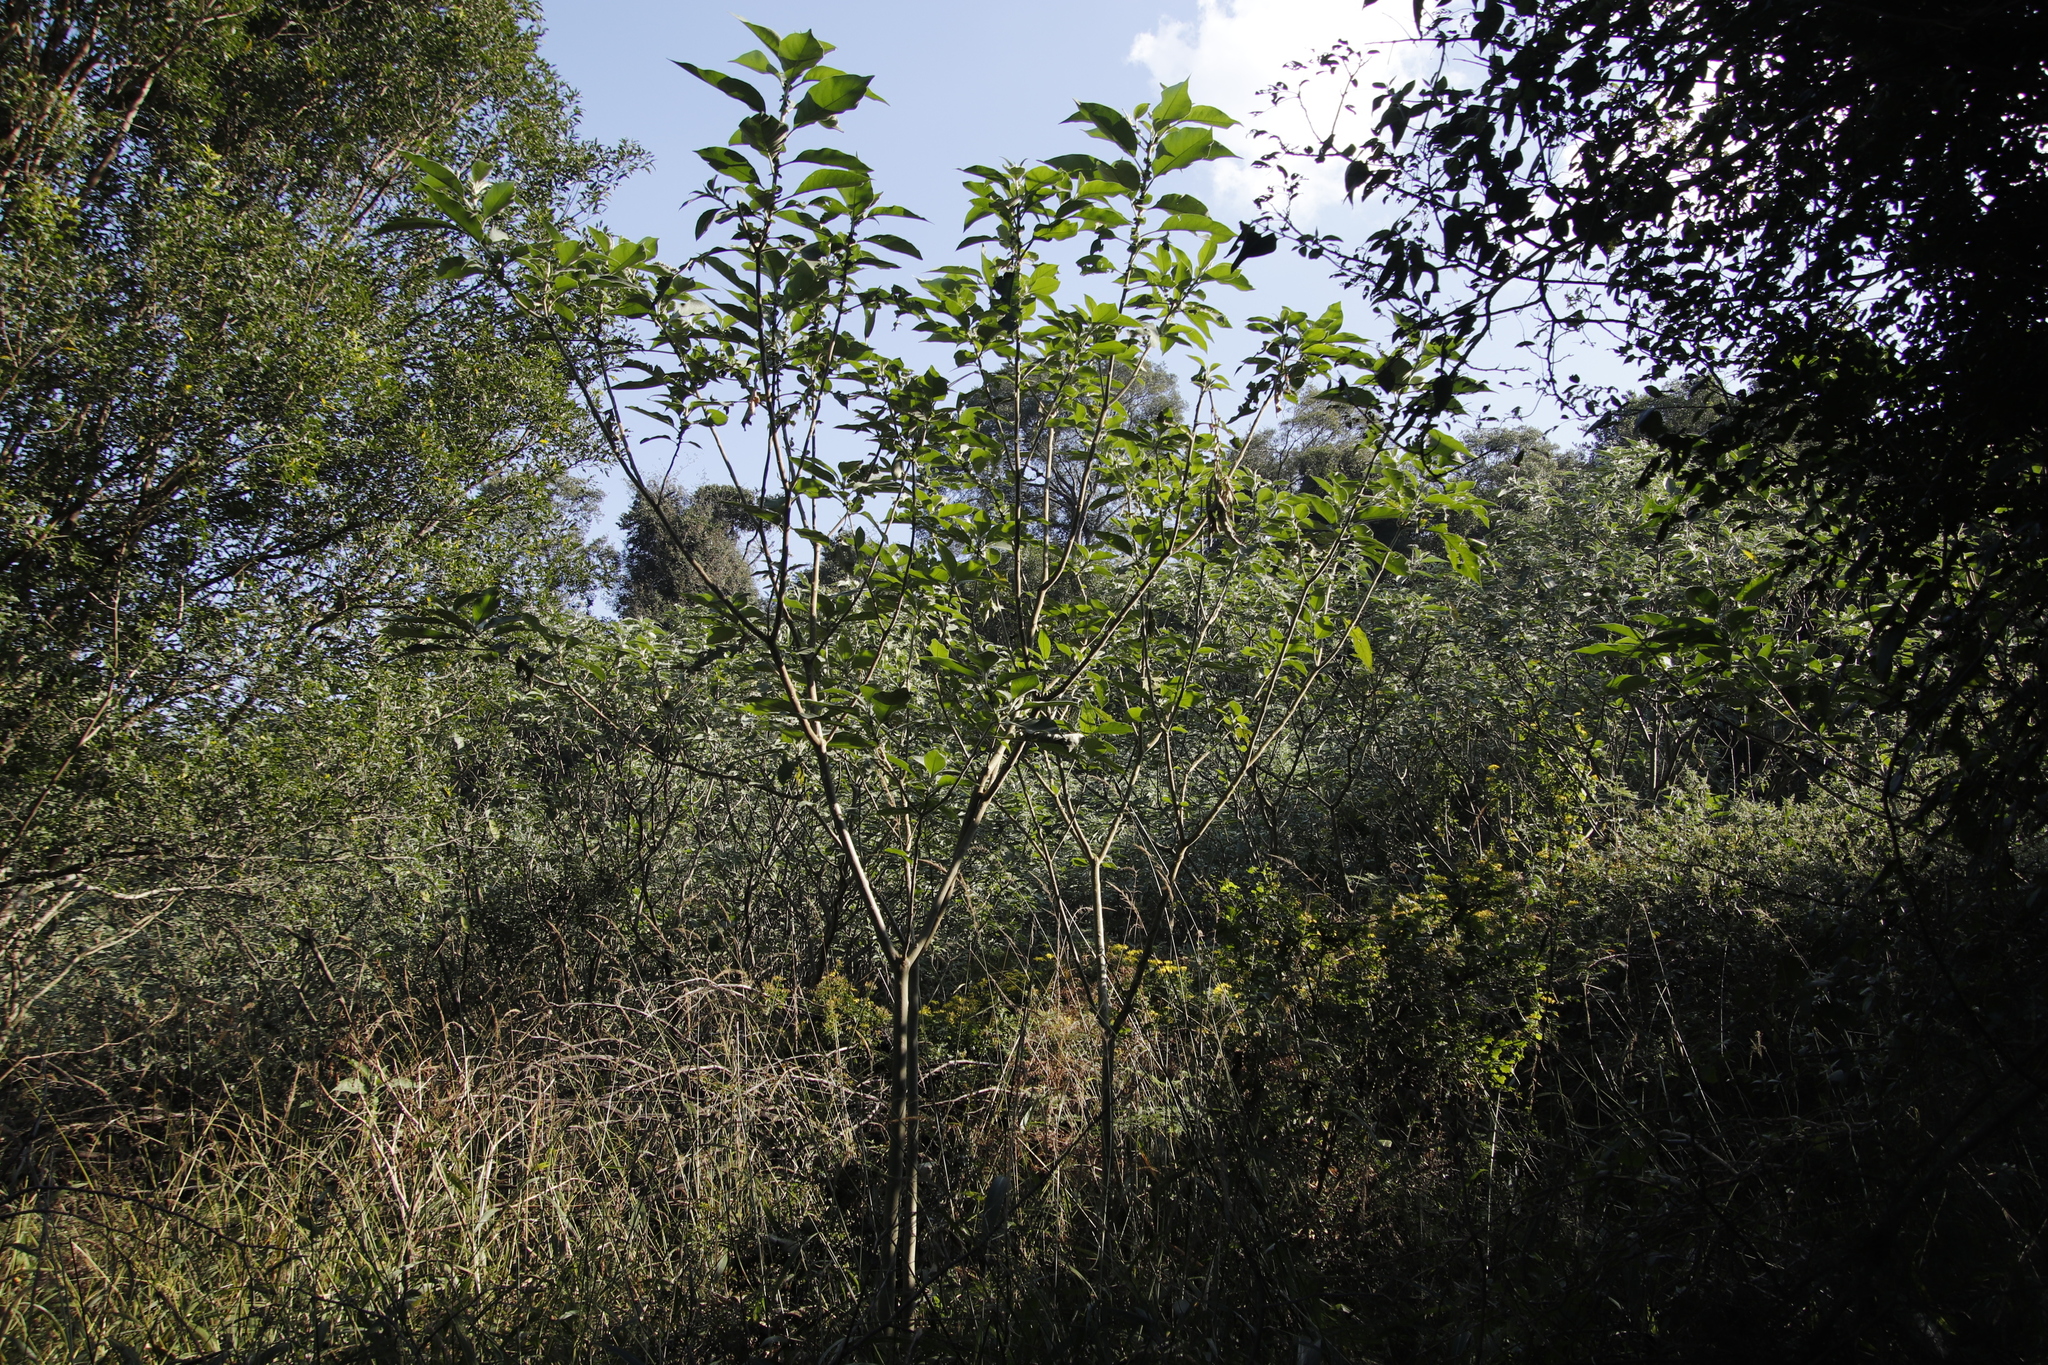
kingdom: Plantae
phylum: Tracheophyta
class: Magnoliopsida
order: Solanales
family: Solanaceae
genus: Solanum
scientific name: Solanum mauritianum
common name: Earleaf nightshade
